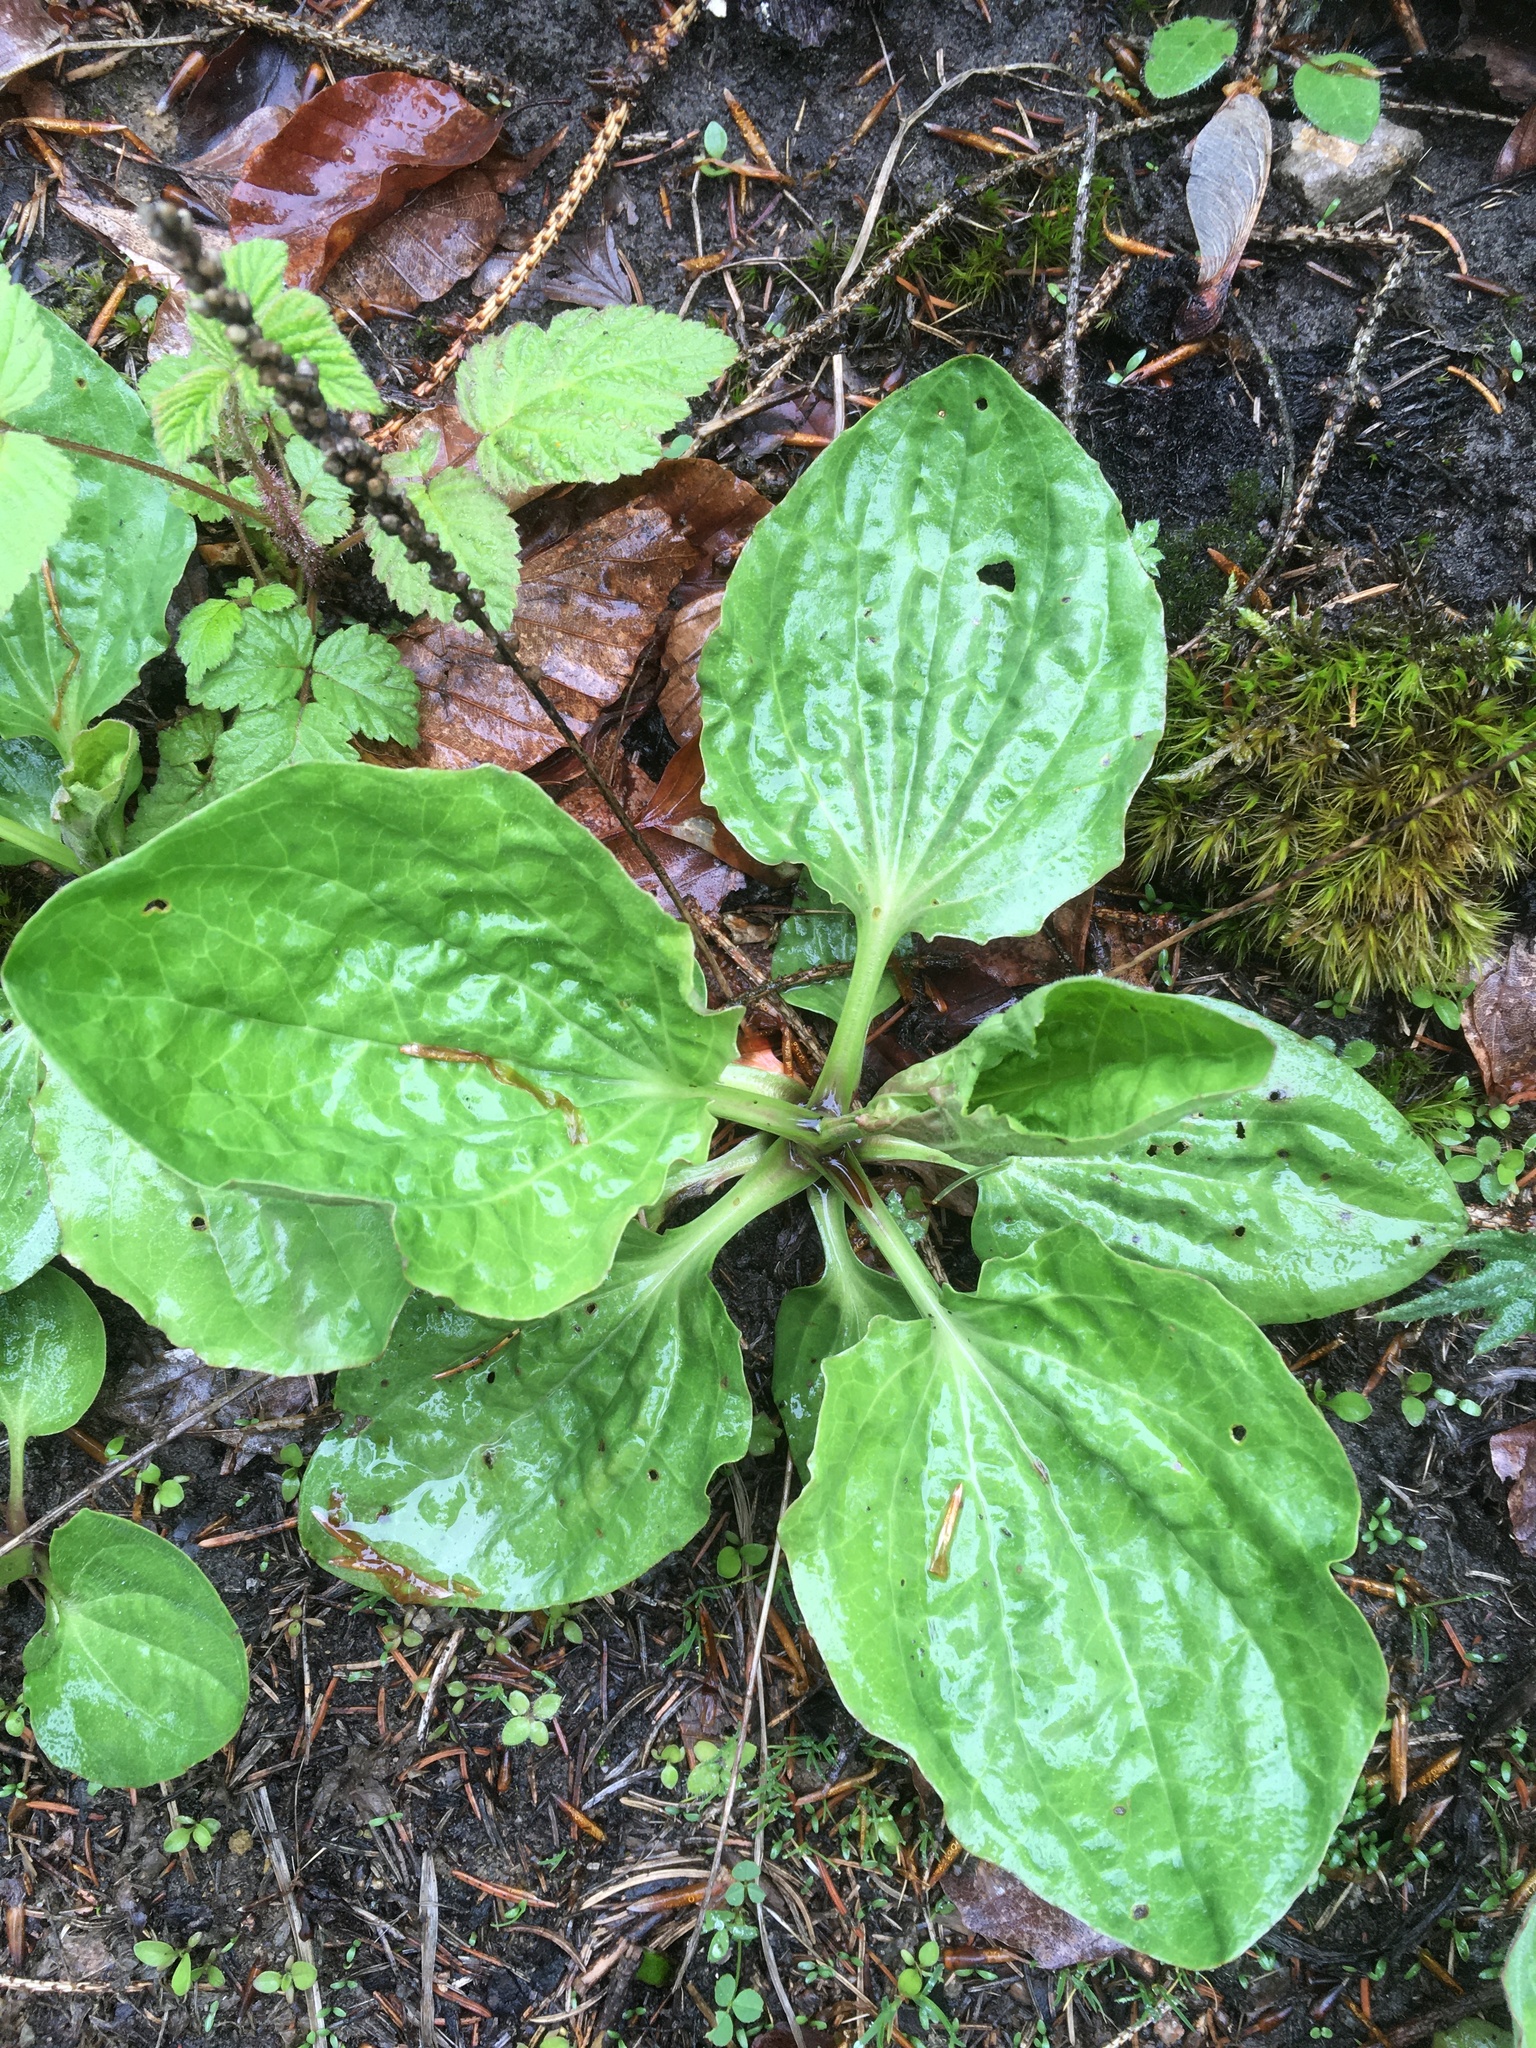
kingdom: Plantae
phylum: Tracheophyta
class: Magnoliopsida
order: Lamiales
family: Plantaginaceae
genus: Plantago
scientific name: Plantago major
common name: Common plantain
